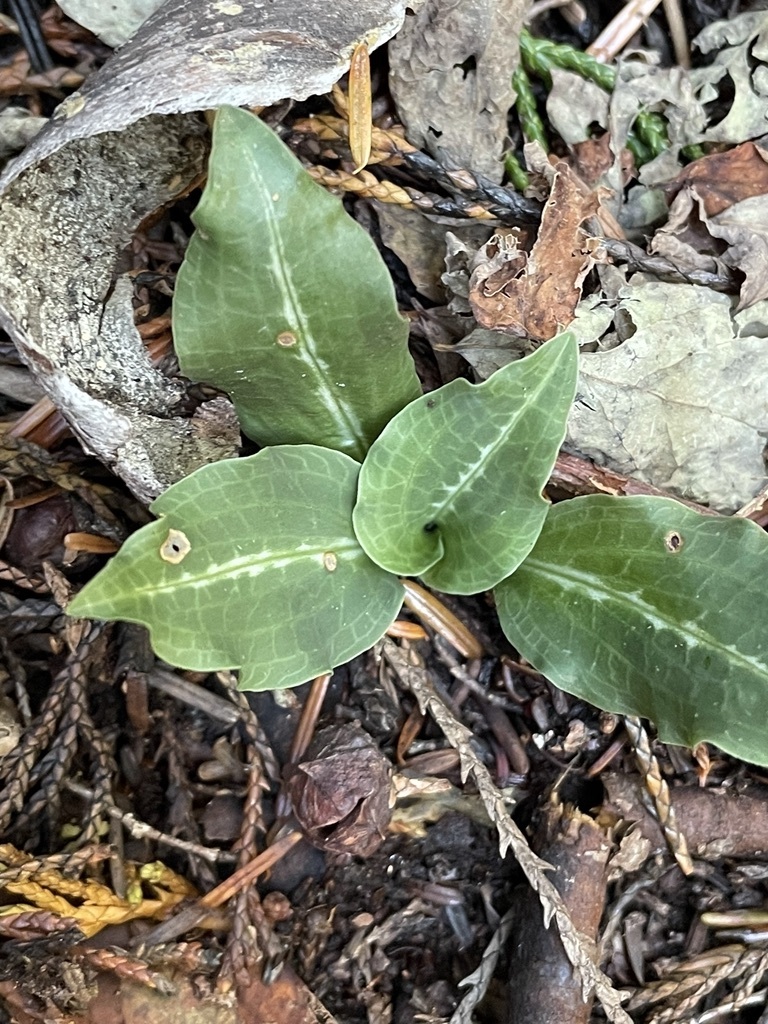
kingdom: Plantae
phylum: Tracheophyta
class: Liliopsida
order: Asparagales
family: Orchidaceae
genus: Goodyera
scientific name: Goodyera oblongifolia
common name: Giant rattlesnake-plantain
